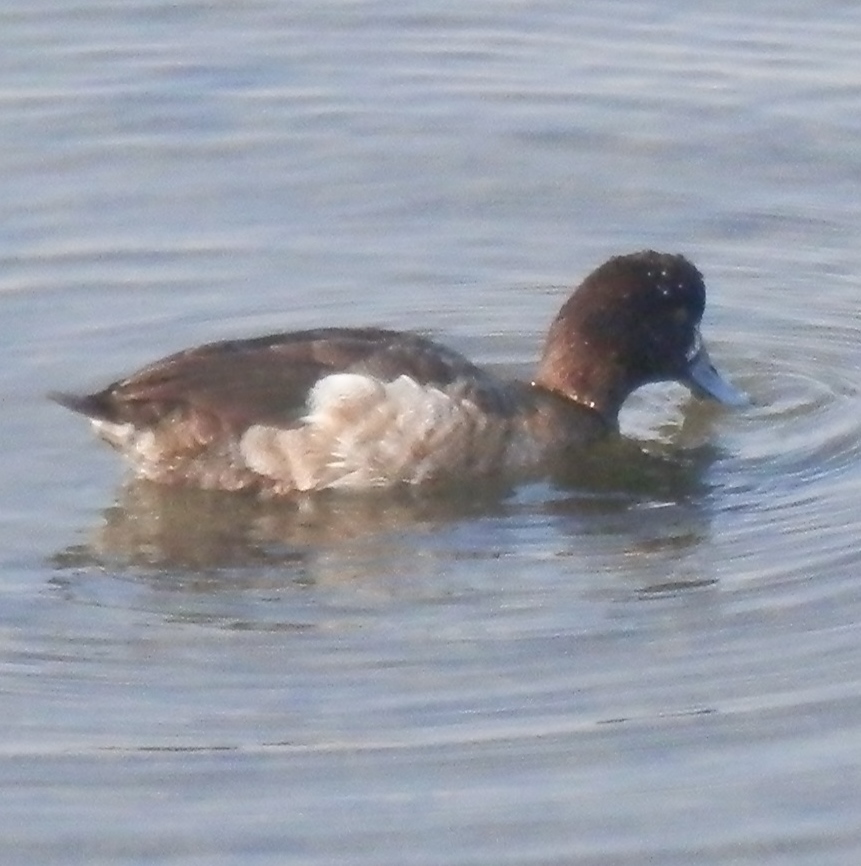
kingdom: Animalia
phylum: Chordata
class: Aves
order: Anseriformes
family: Anatidae
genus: Aythya
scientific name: Aythya affinis
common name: Lesser scaup
